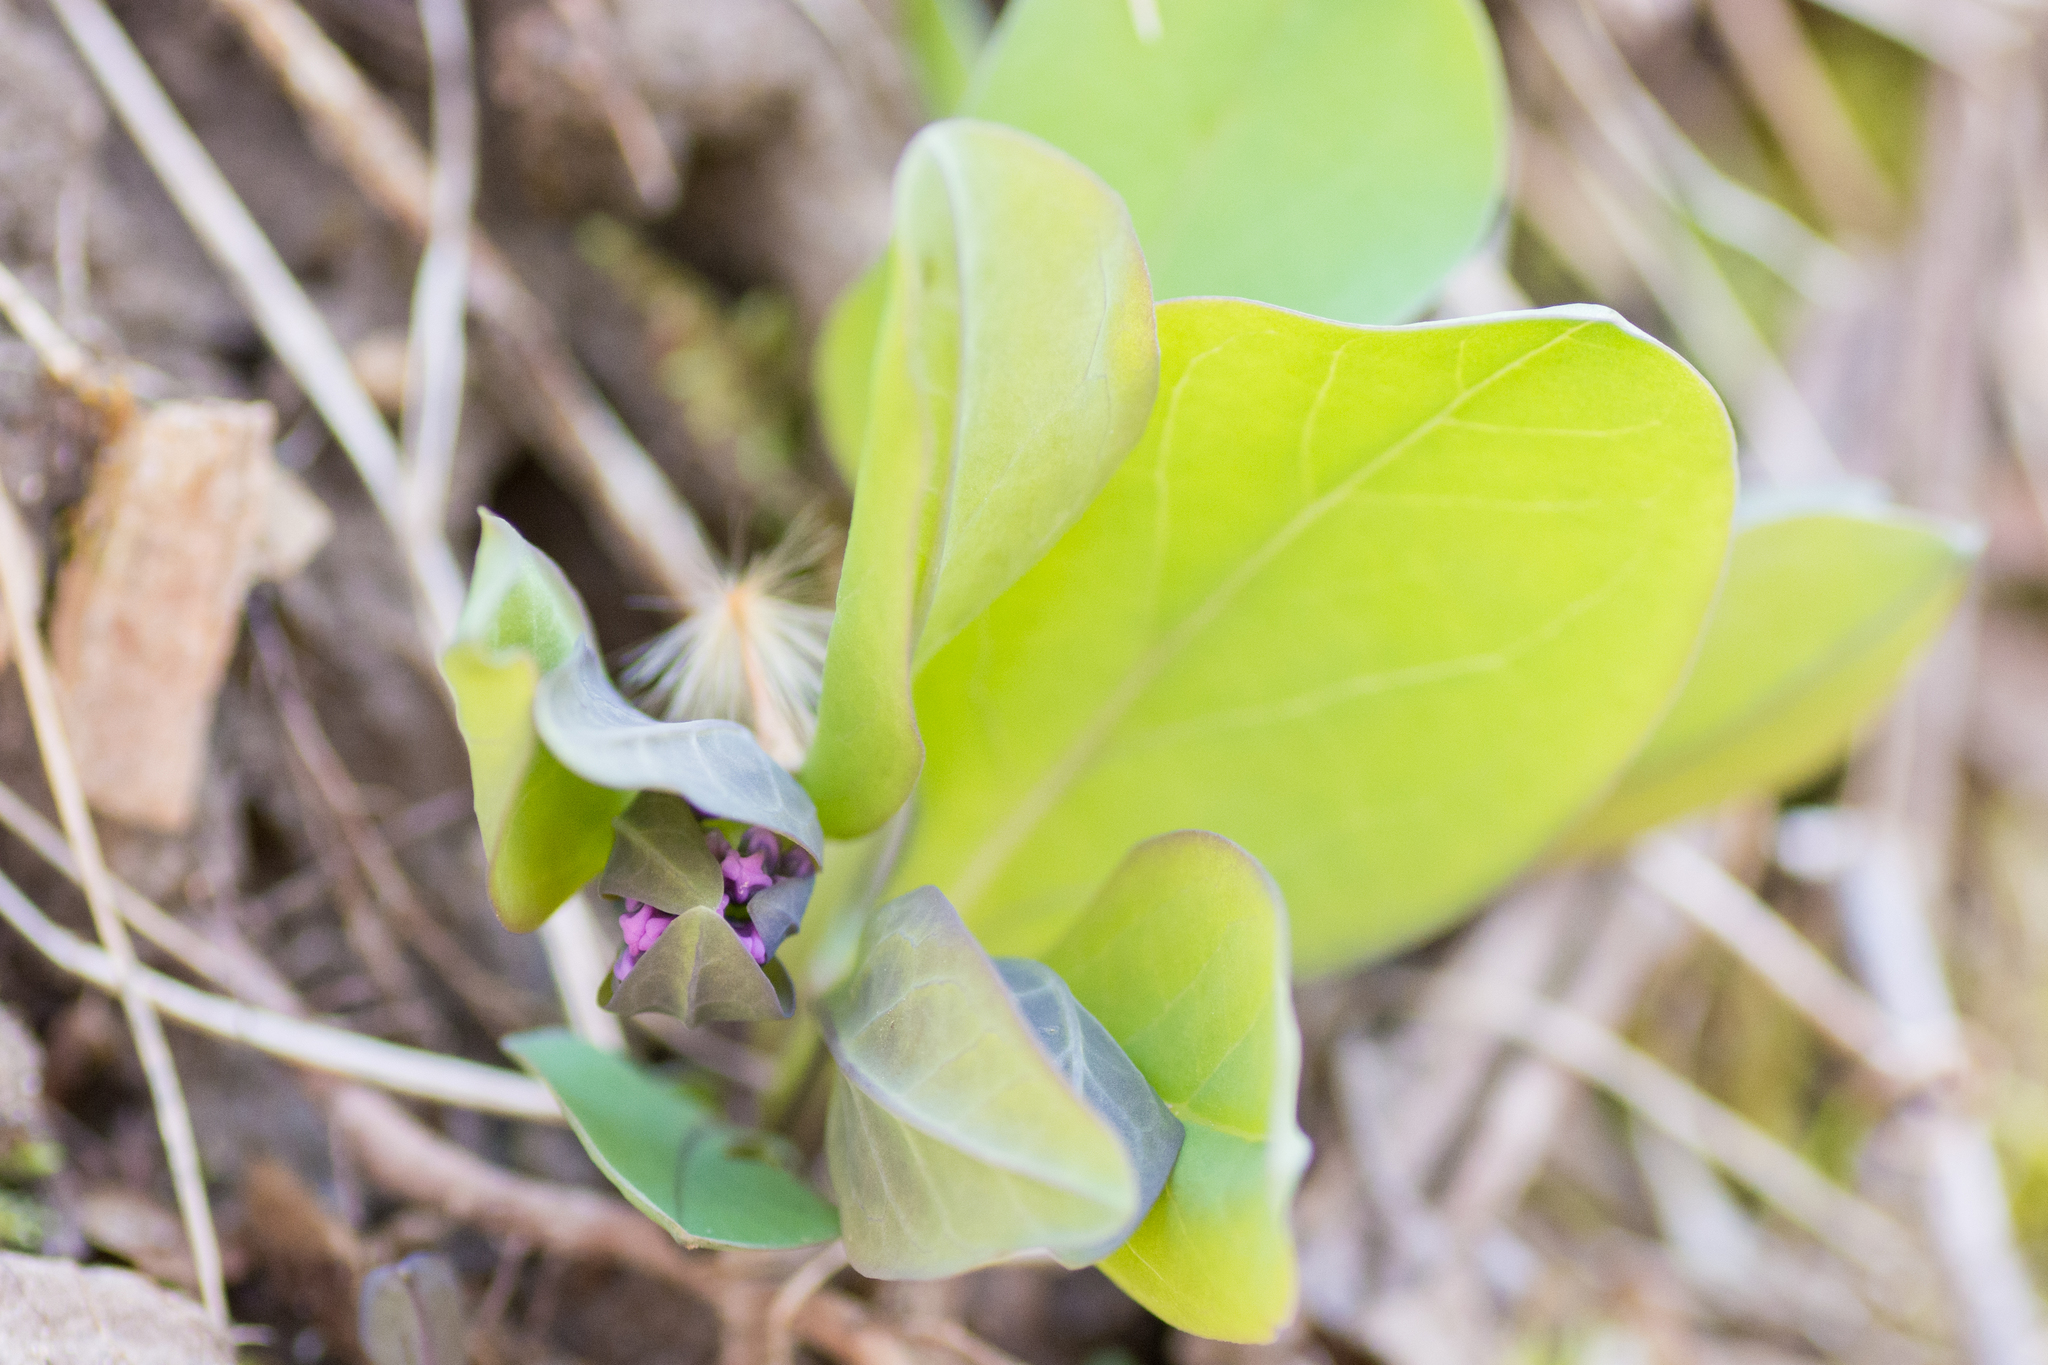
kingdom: Plantae
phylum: Tracheophyta
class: Magnoliopsida
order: Boraginales
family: Boraginaceae
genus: Mertensia
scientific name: Mertensia virginica
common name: Virginia bluebells
